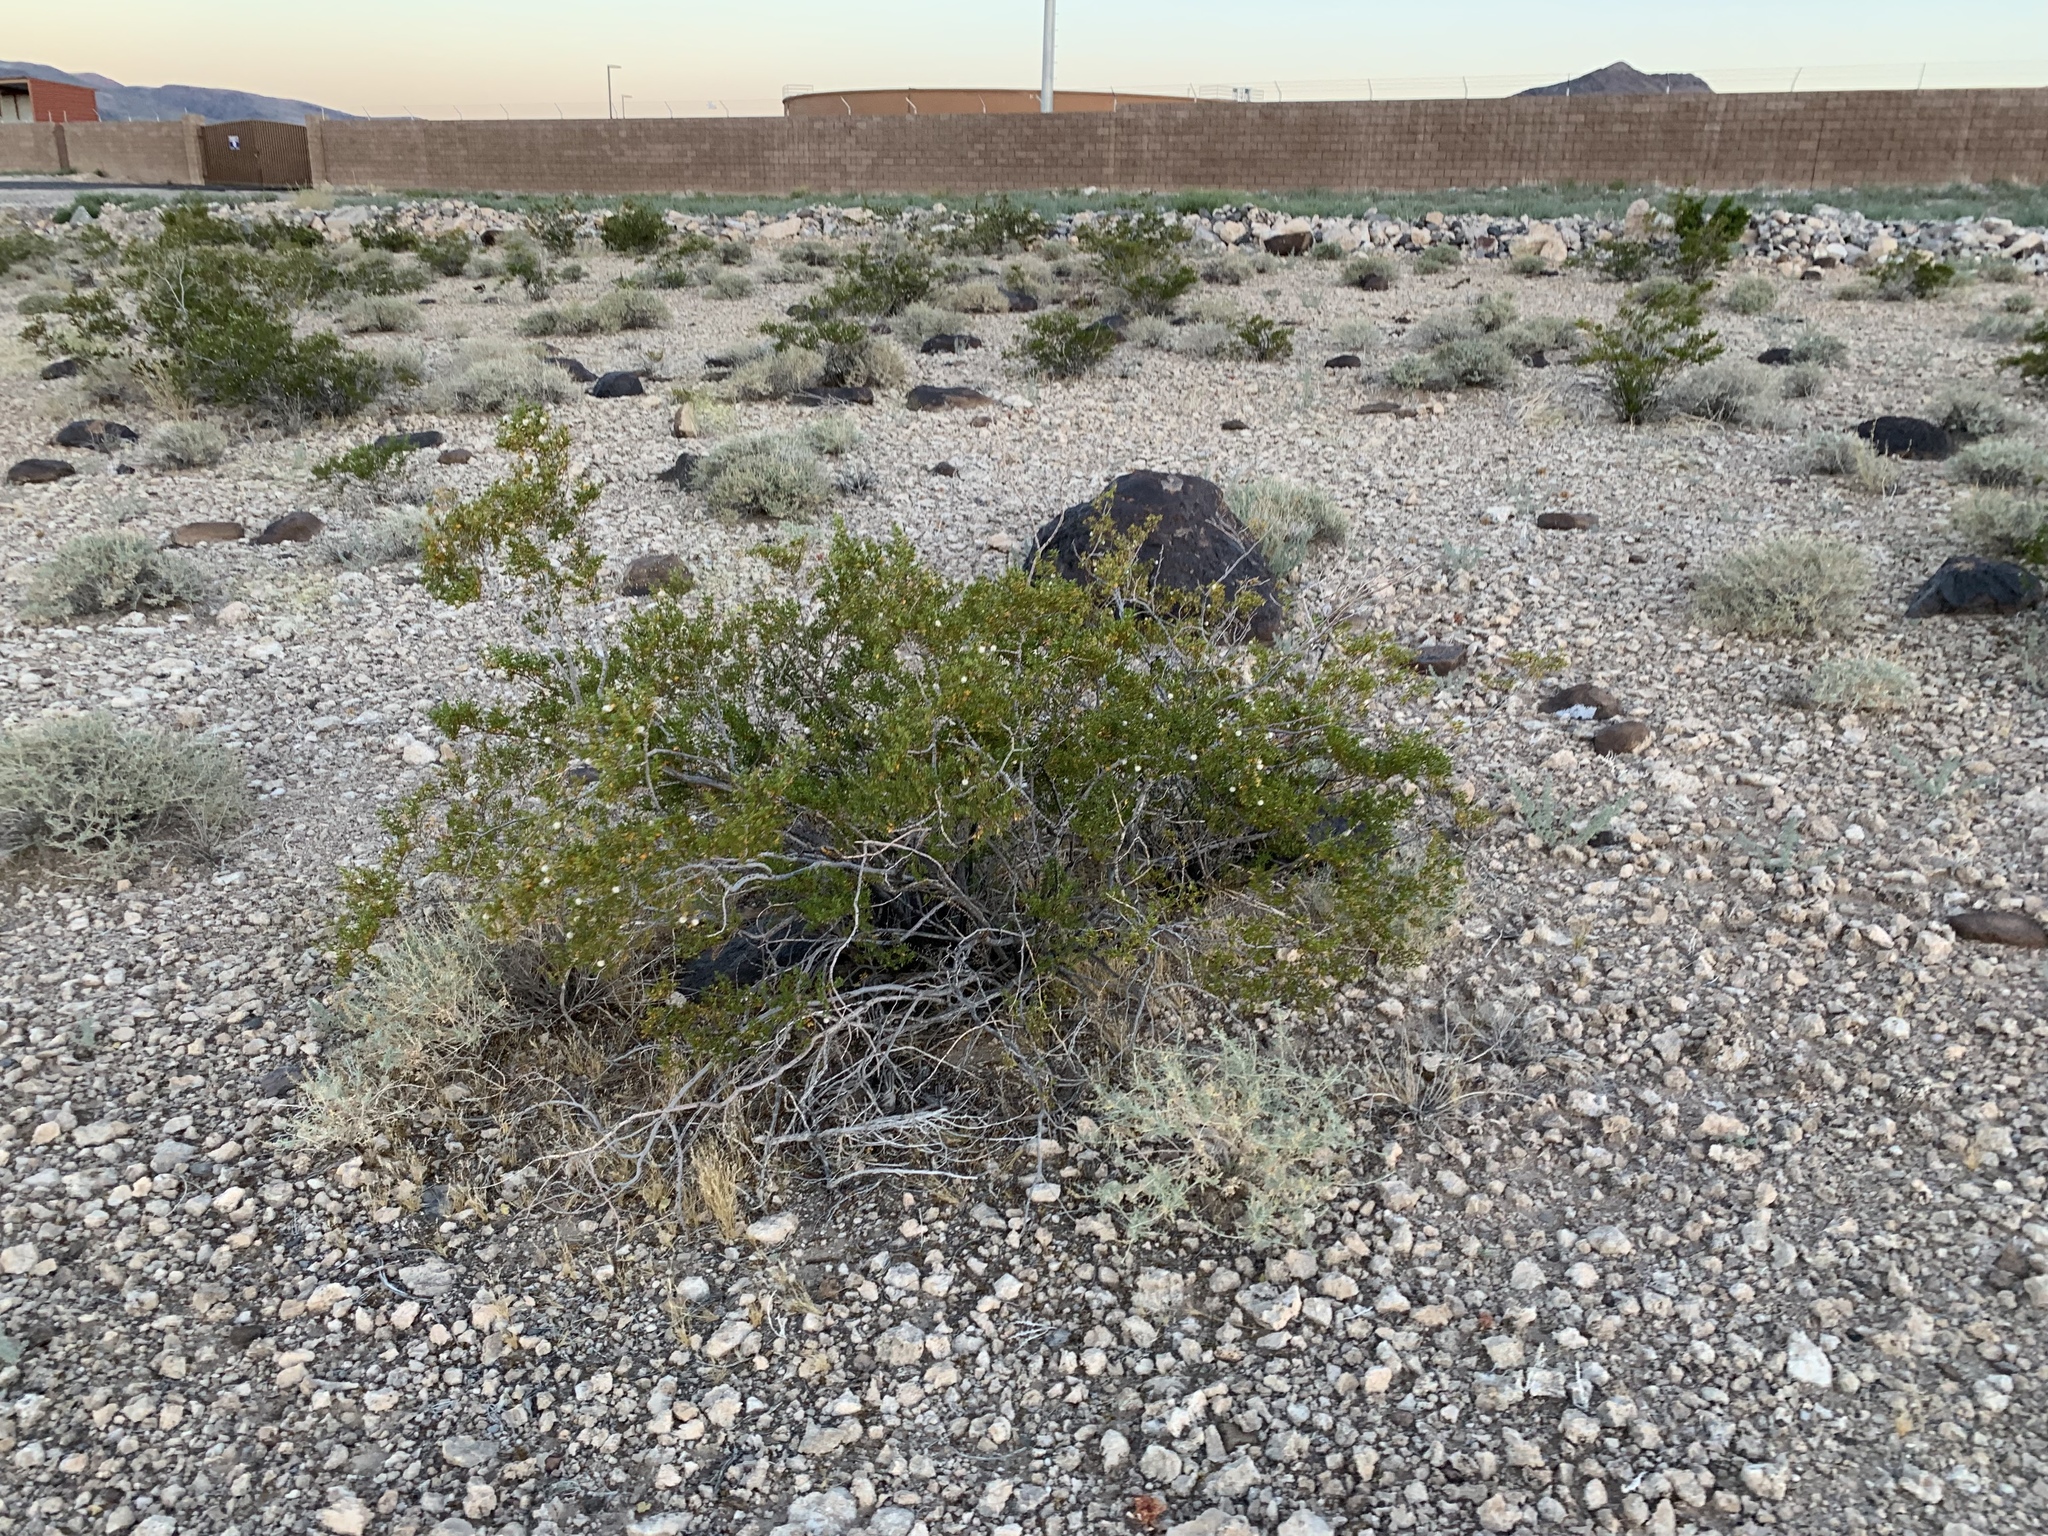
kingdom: Plantae
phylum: Tracheophyta
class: Magnoliopsida
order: Zygophyllales
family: Zygophyllaceae
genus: Larrea
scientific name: Larrea tridentata
